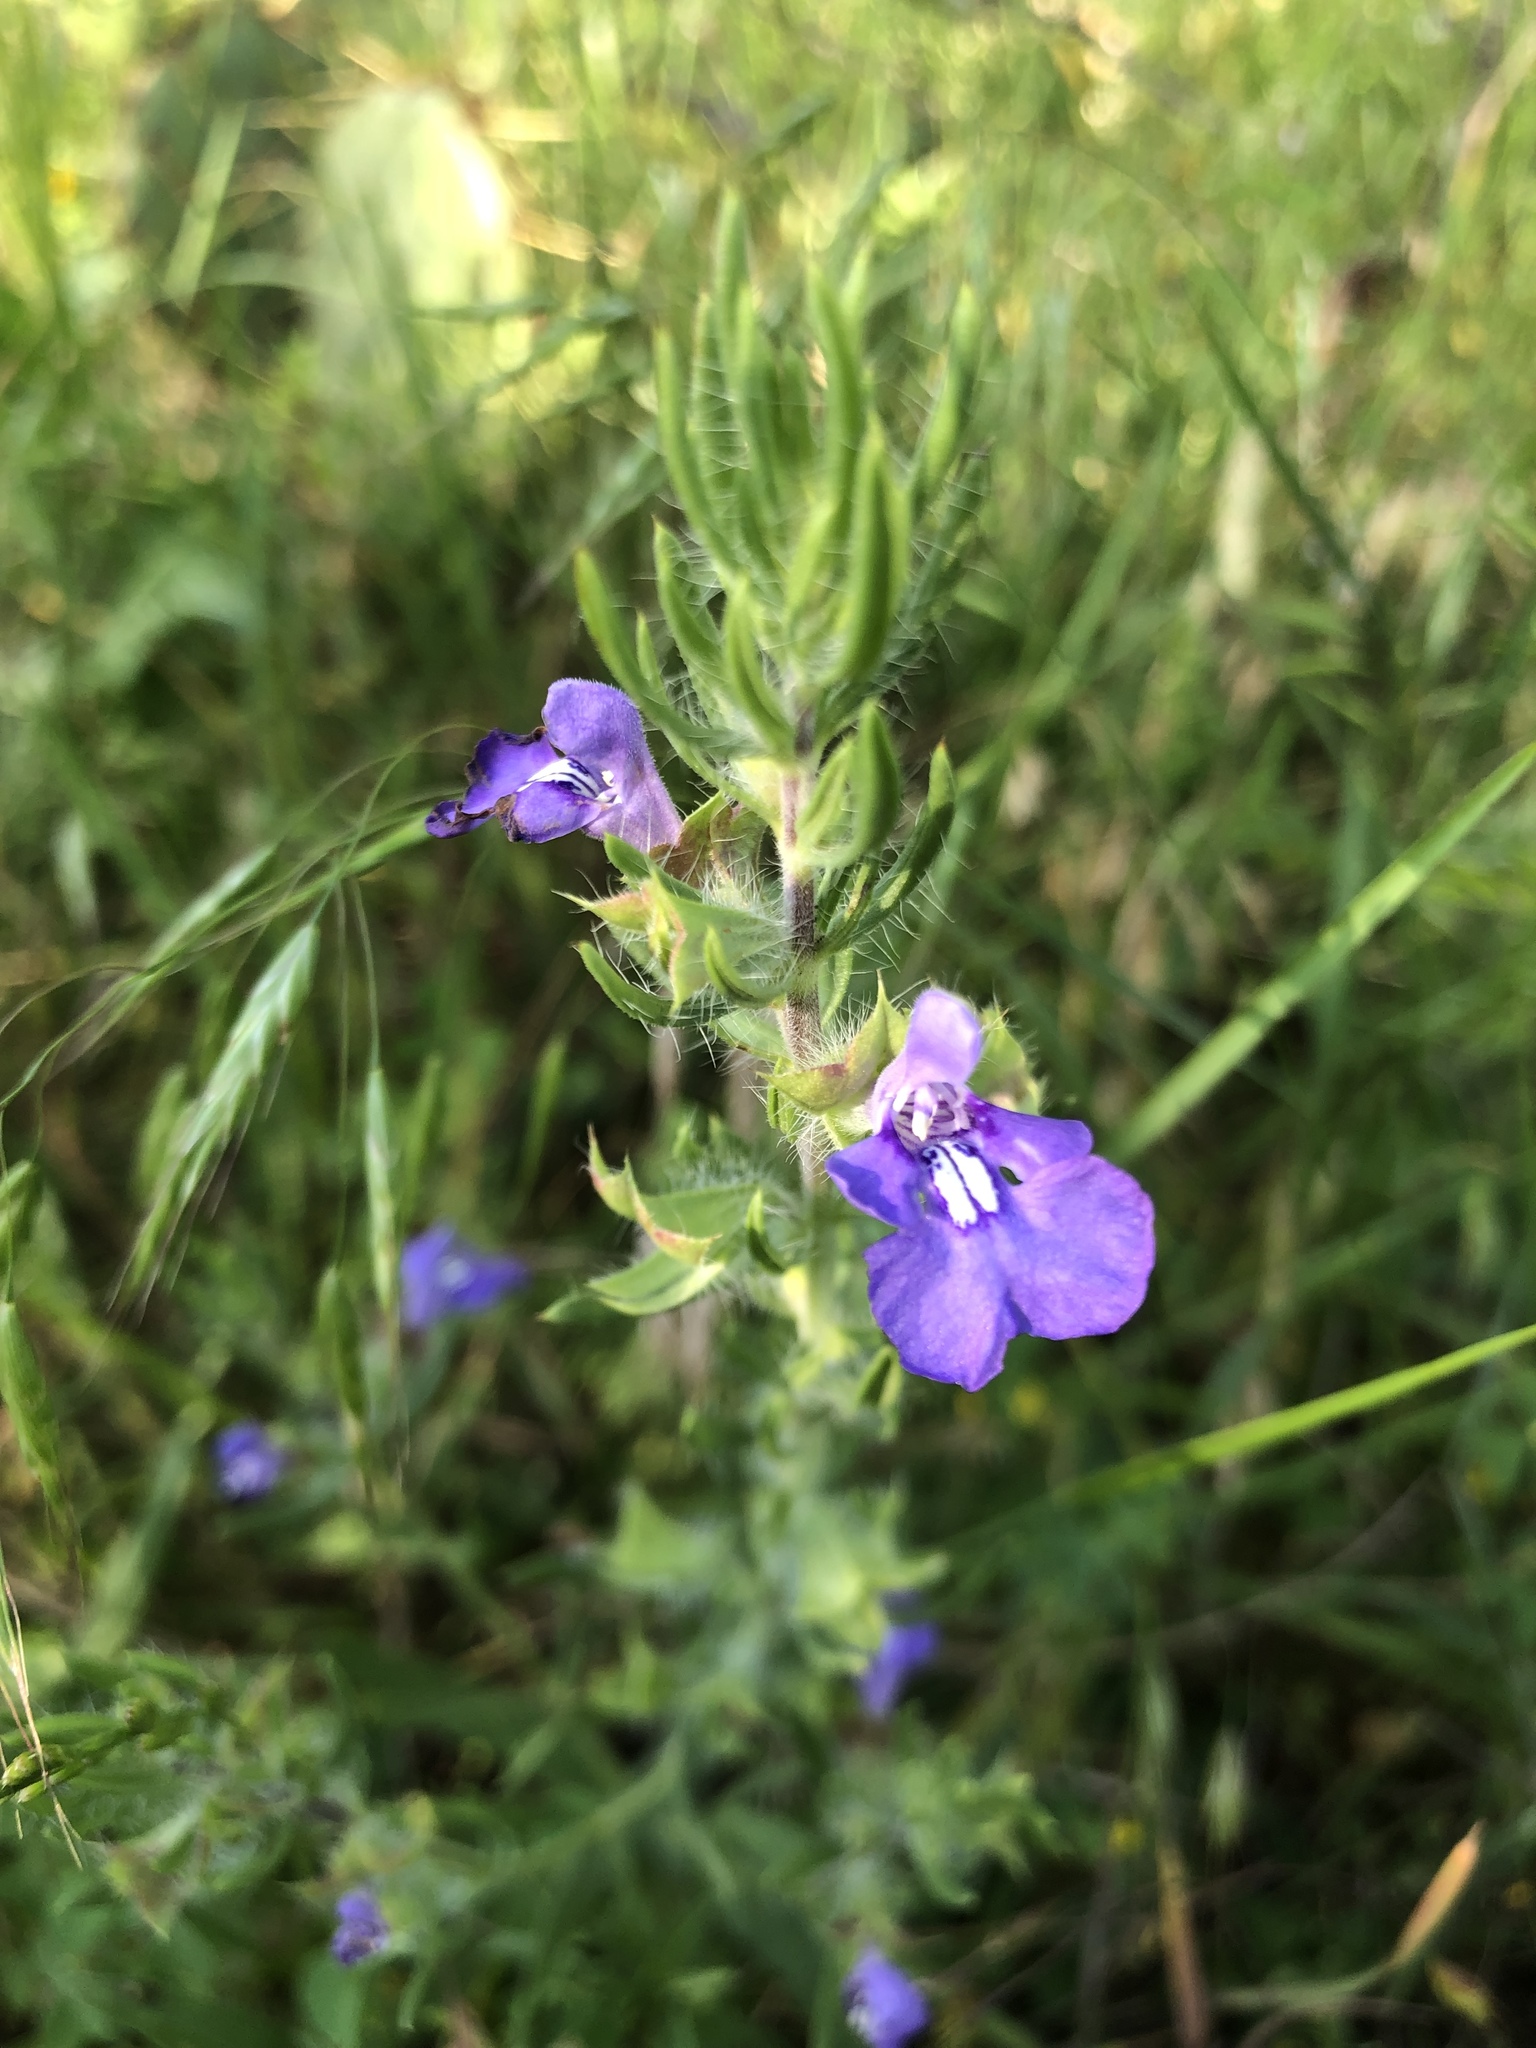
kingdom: Plantae
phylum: Tracheophyta
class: Magnoliopsida
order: Lamiales
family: Lamiaceae
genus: Salvia
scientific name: Salvia texana
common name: Texas sage
